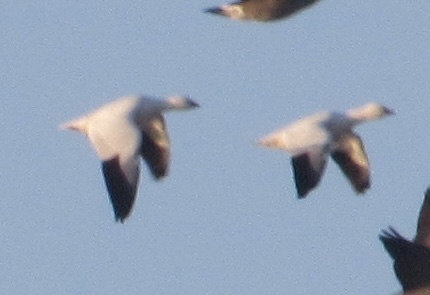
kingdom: Animalia
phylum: Chordata
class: Aves
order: Anseriformes
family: Anatidae
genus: Anser
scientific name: Anser caerulescens
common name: Snow goose
